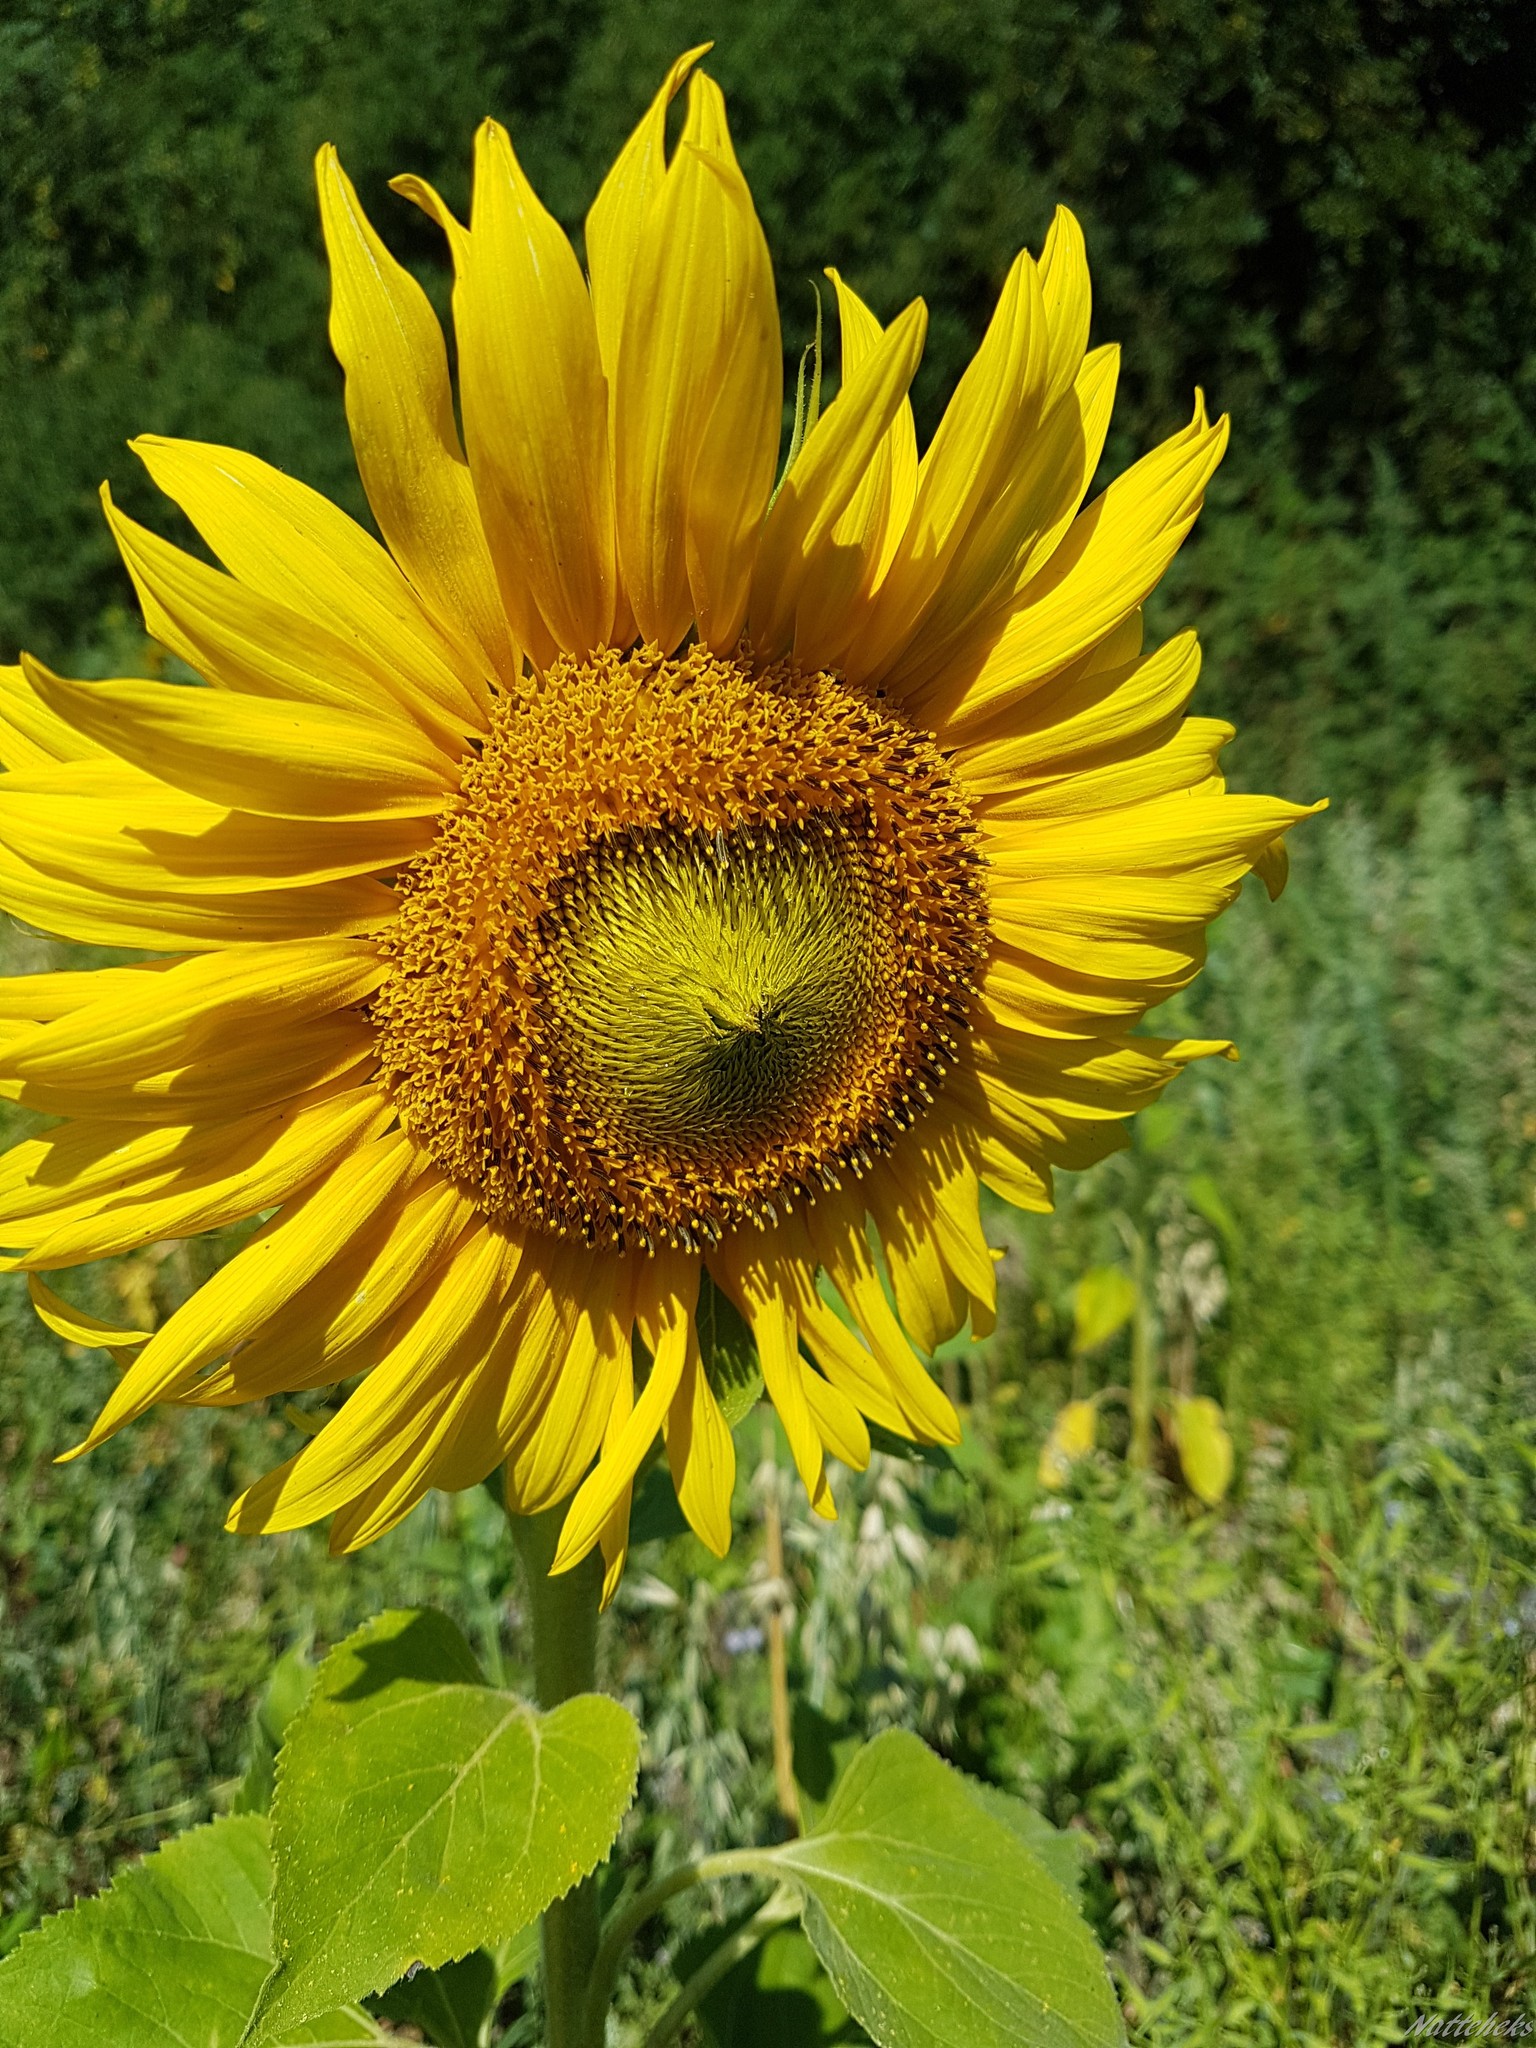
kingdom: Plantae
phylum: Tracheophyta
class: Magnoliopsida
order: Asterales
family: Asteraceae
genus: Helianthus
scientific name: Helianthus annuus
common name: Sunflower
